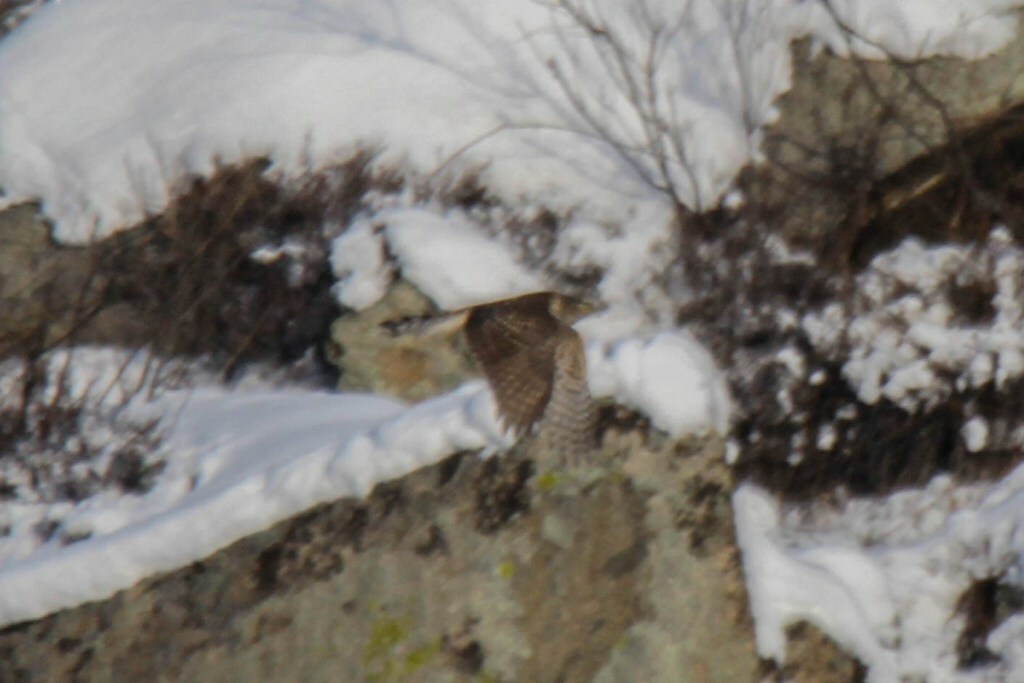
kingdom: Animalia
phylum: Chordata
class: Aves
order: Accipitriformes
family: Accipitridae
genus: Accipiter
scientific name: Accipiter gentilis
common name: Northern goshawk
